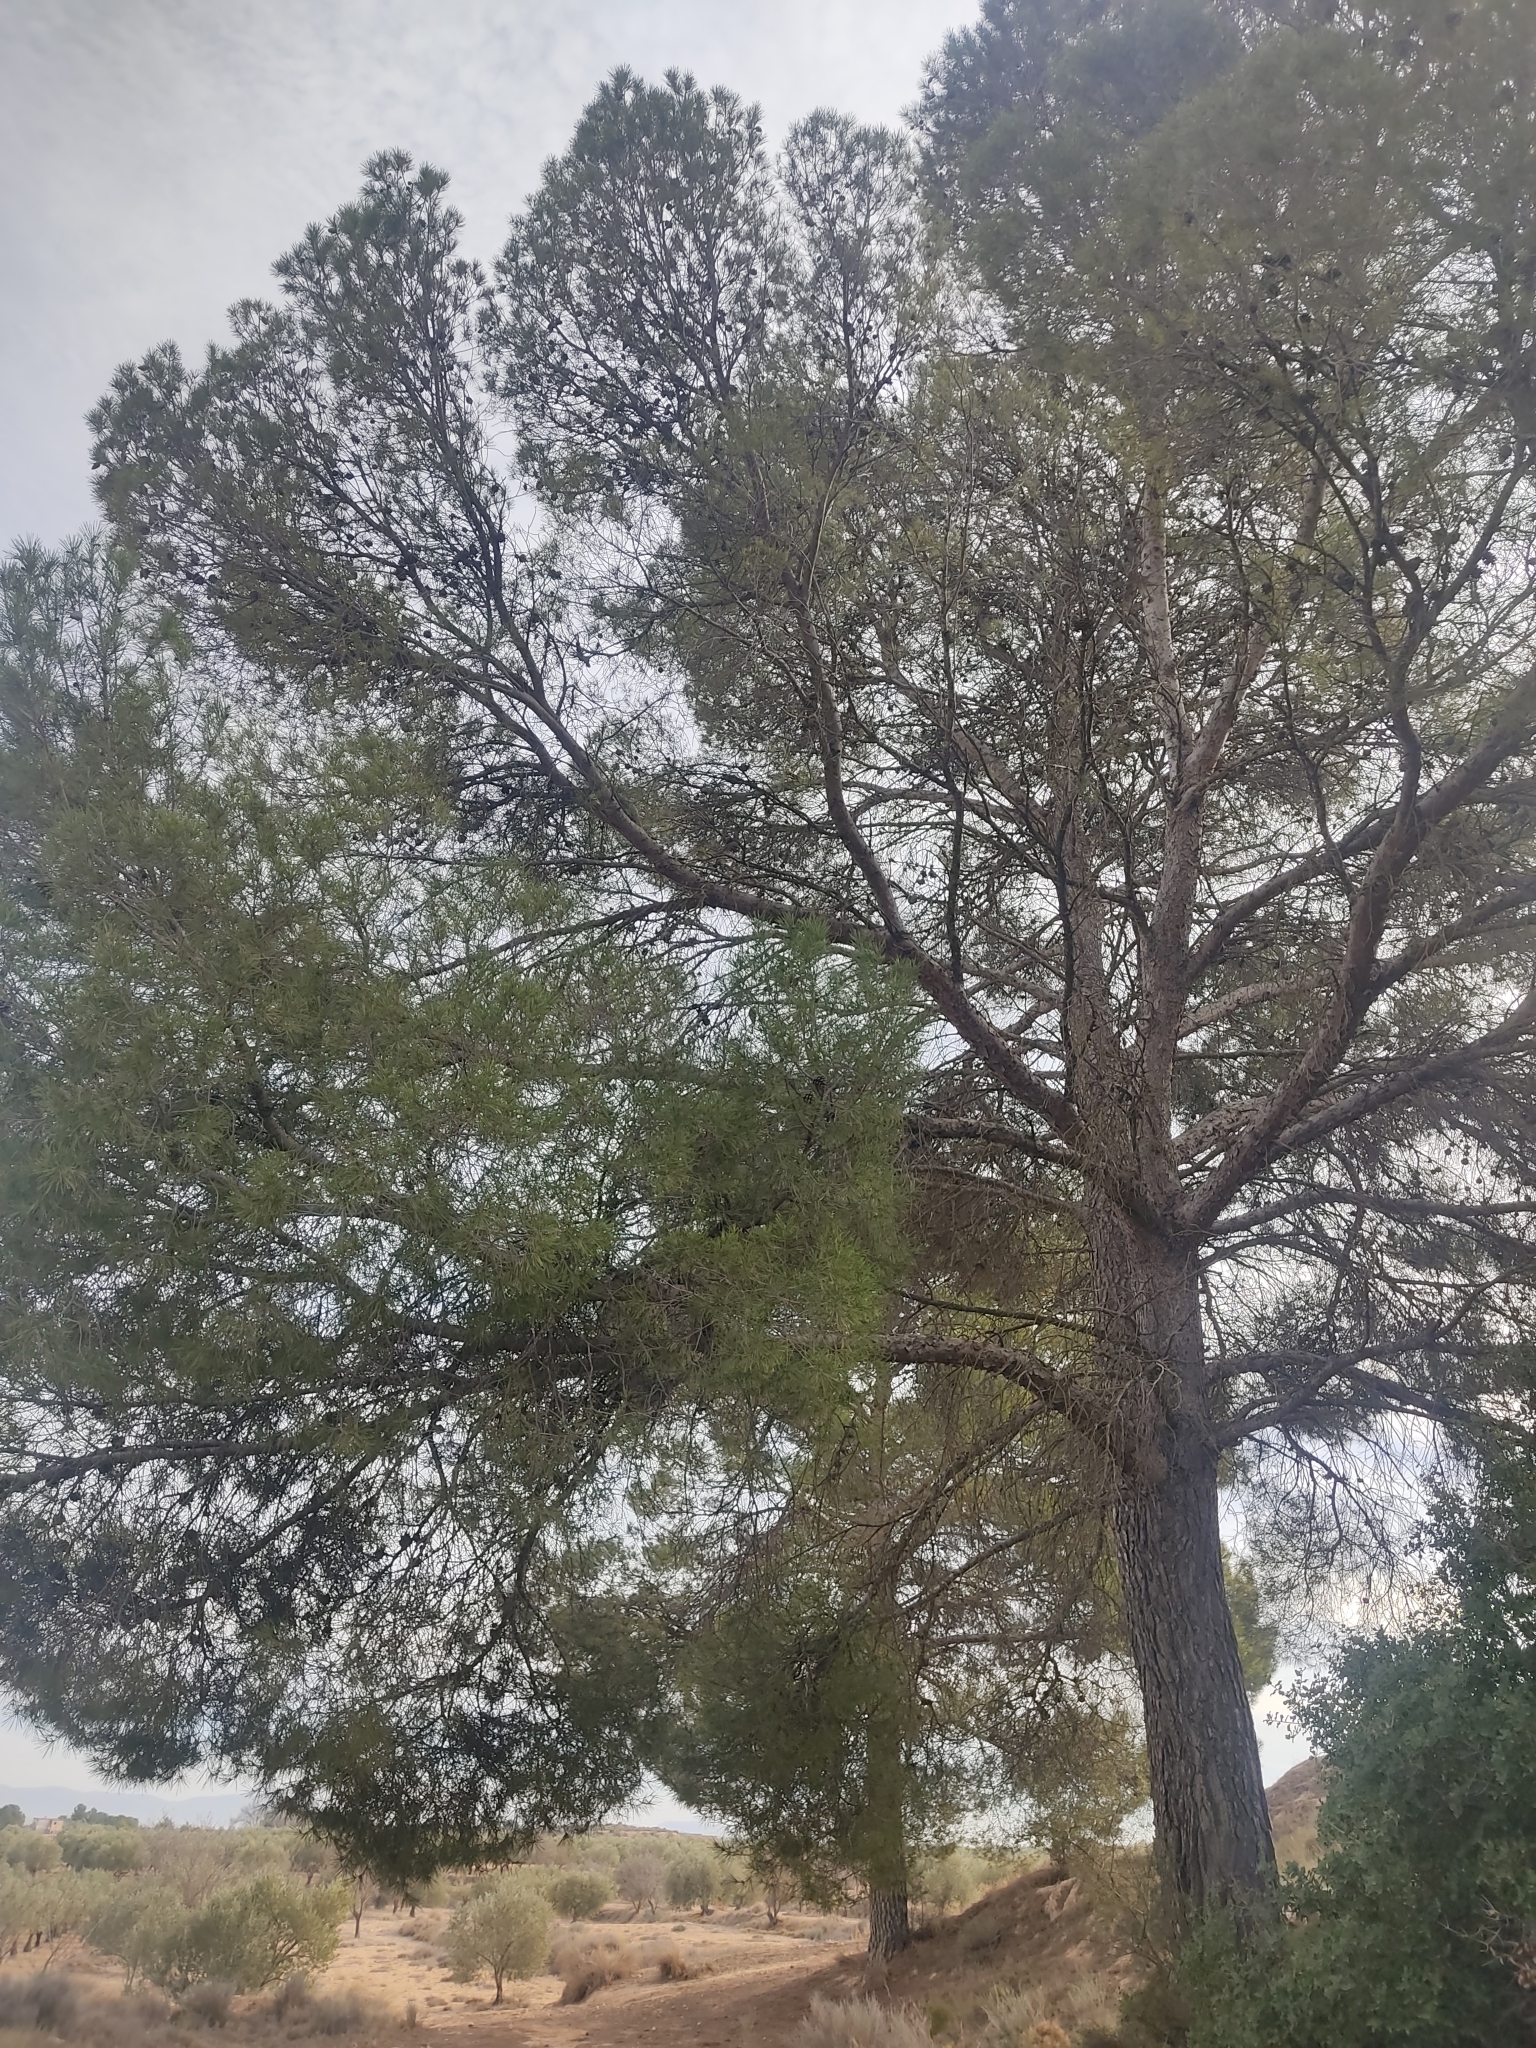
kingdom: Plantae
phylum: Tracheophyta
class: Pinopsida
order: Pinales
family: Pinaceae
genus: Pinus
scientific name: Pinus halepensis
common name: Aleppo pine
